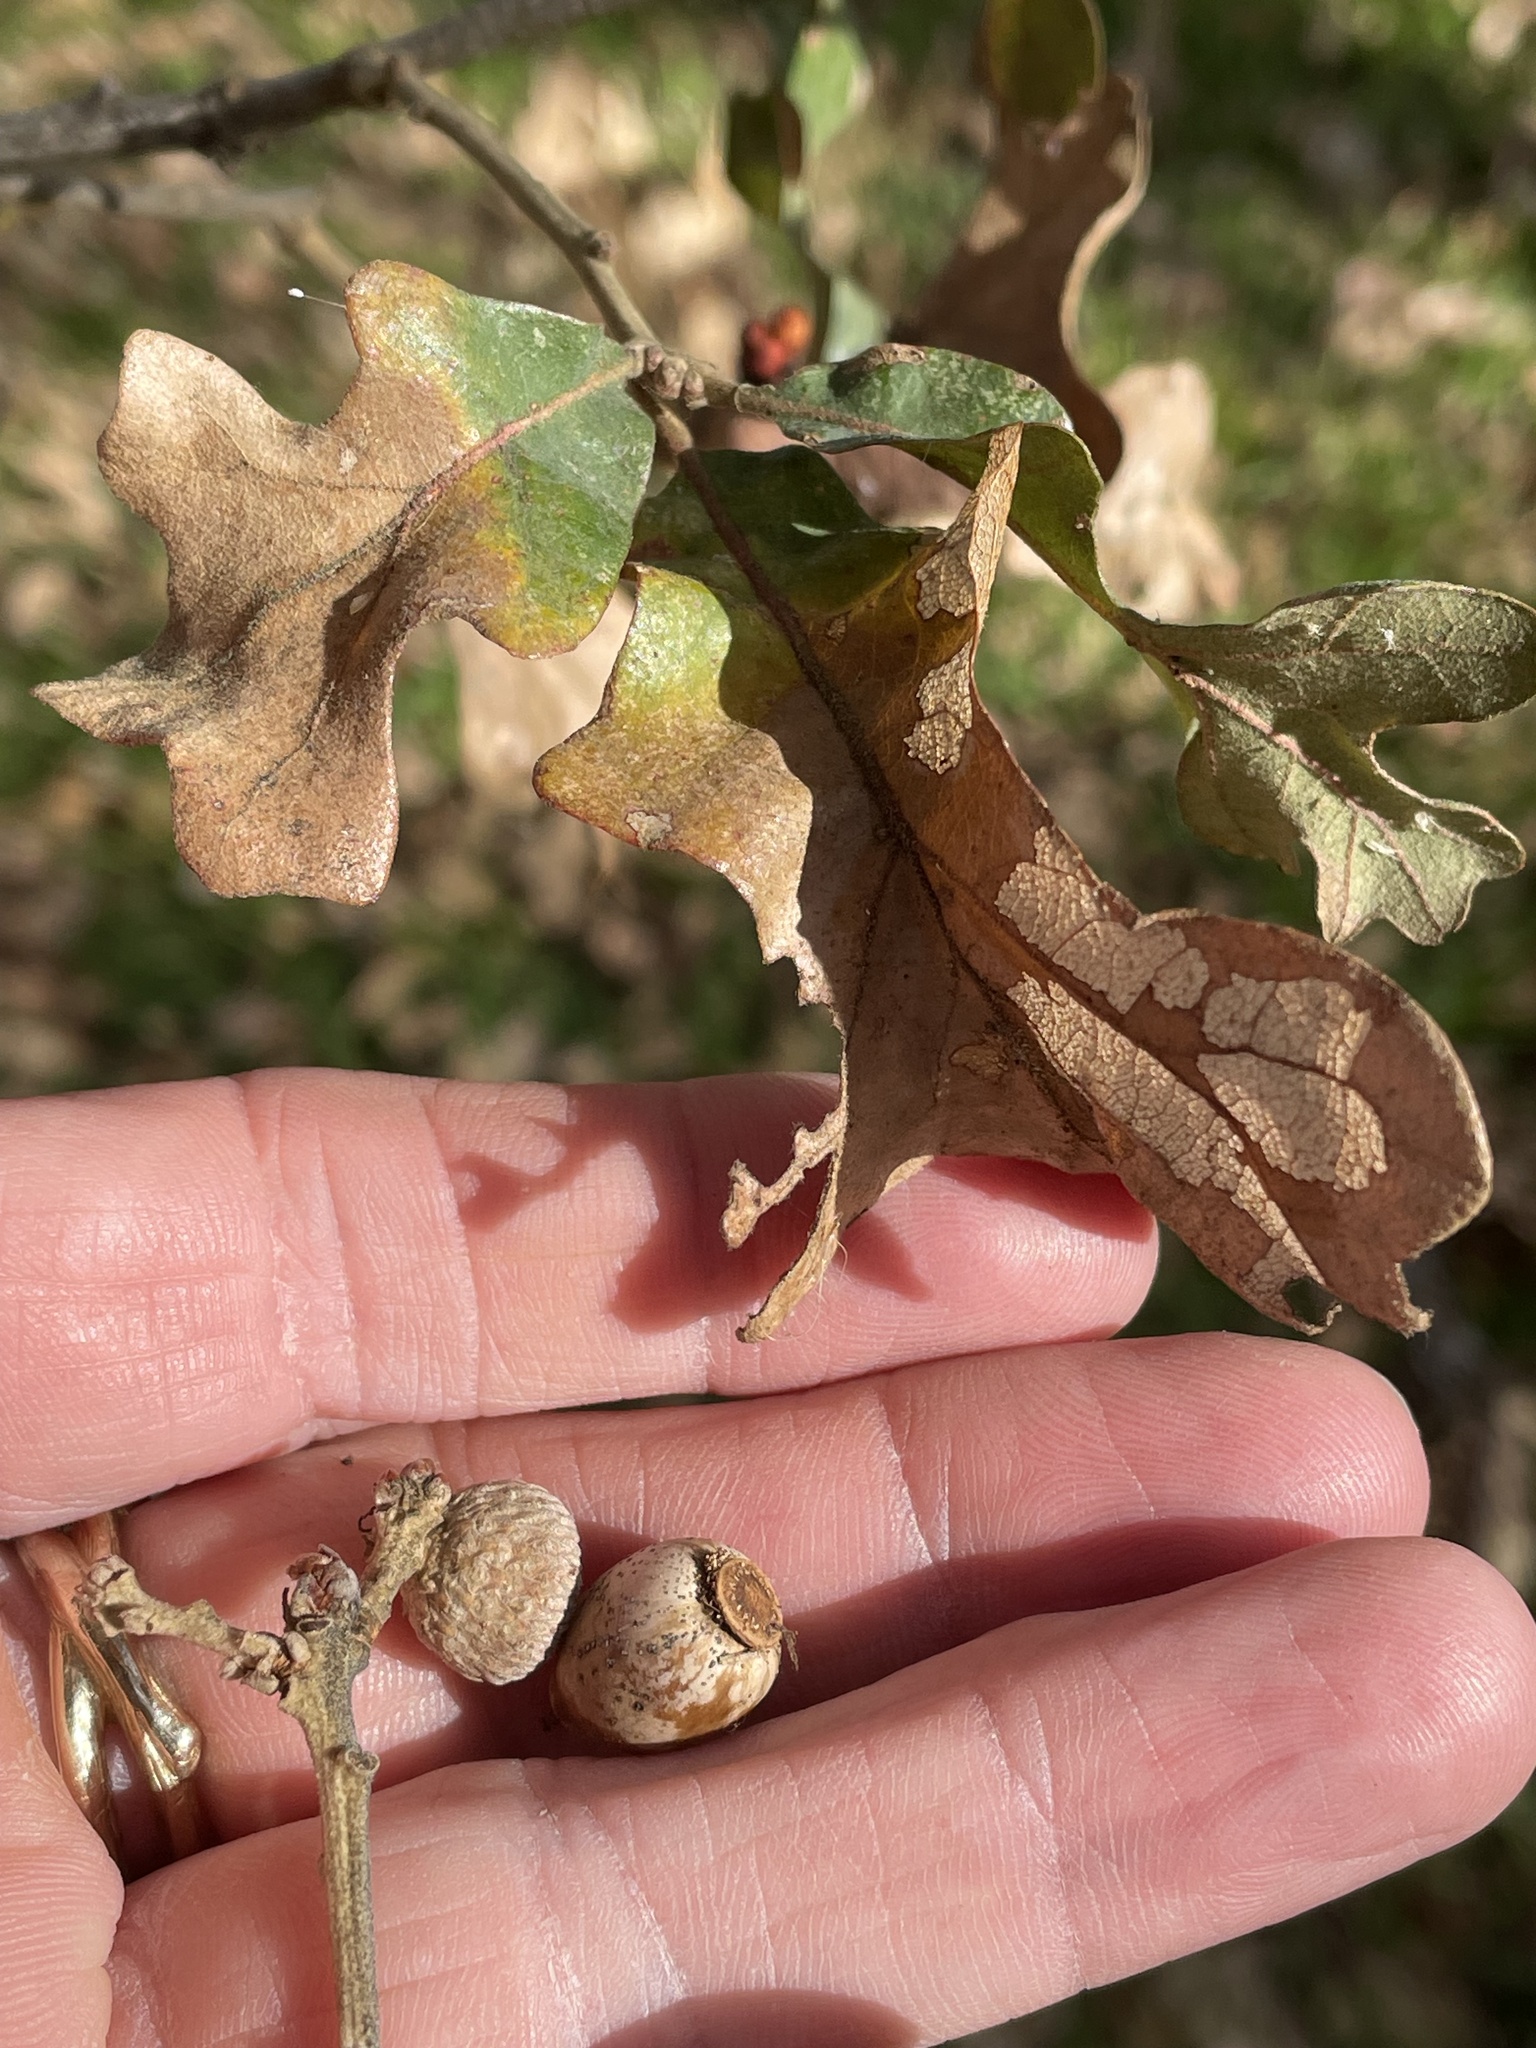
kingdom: Plantae
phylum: Tracheophyta
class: Magnoliopsida
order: Fagales
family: Fagaceae
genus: Quercus
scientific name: Quercus stellata
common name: Post oak
